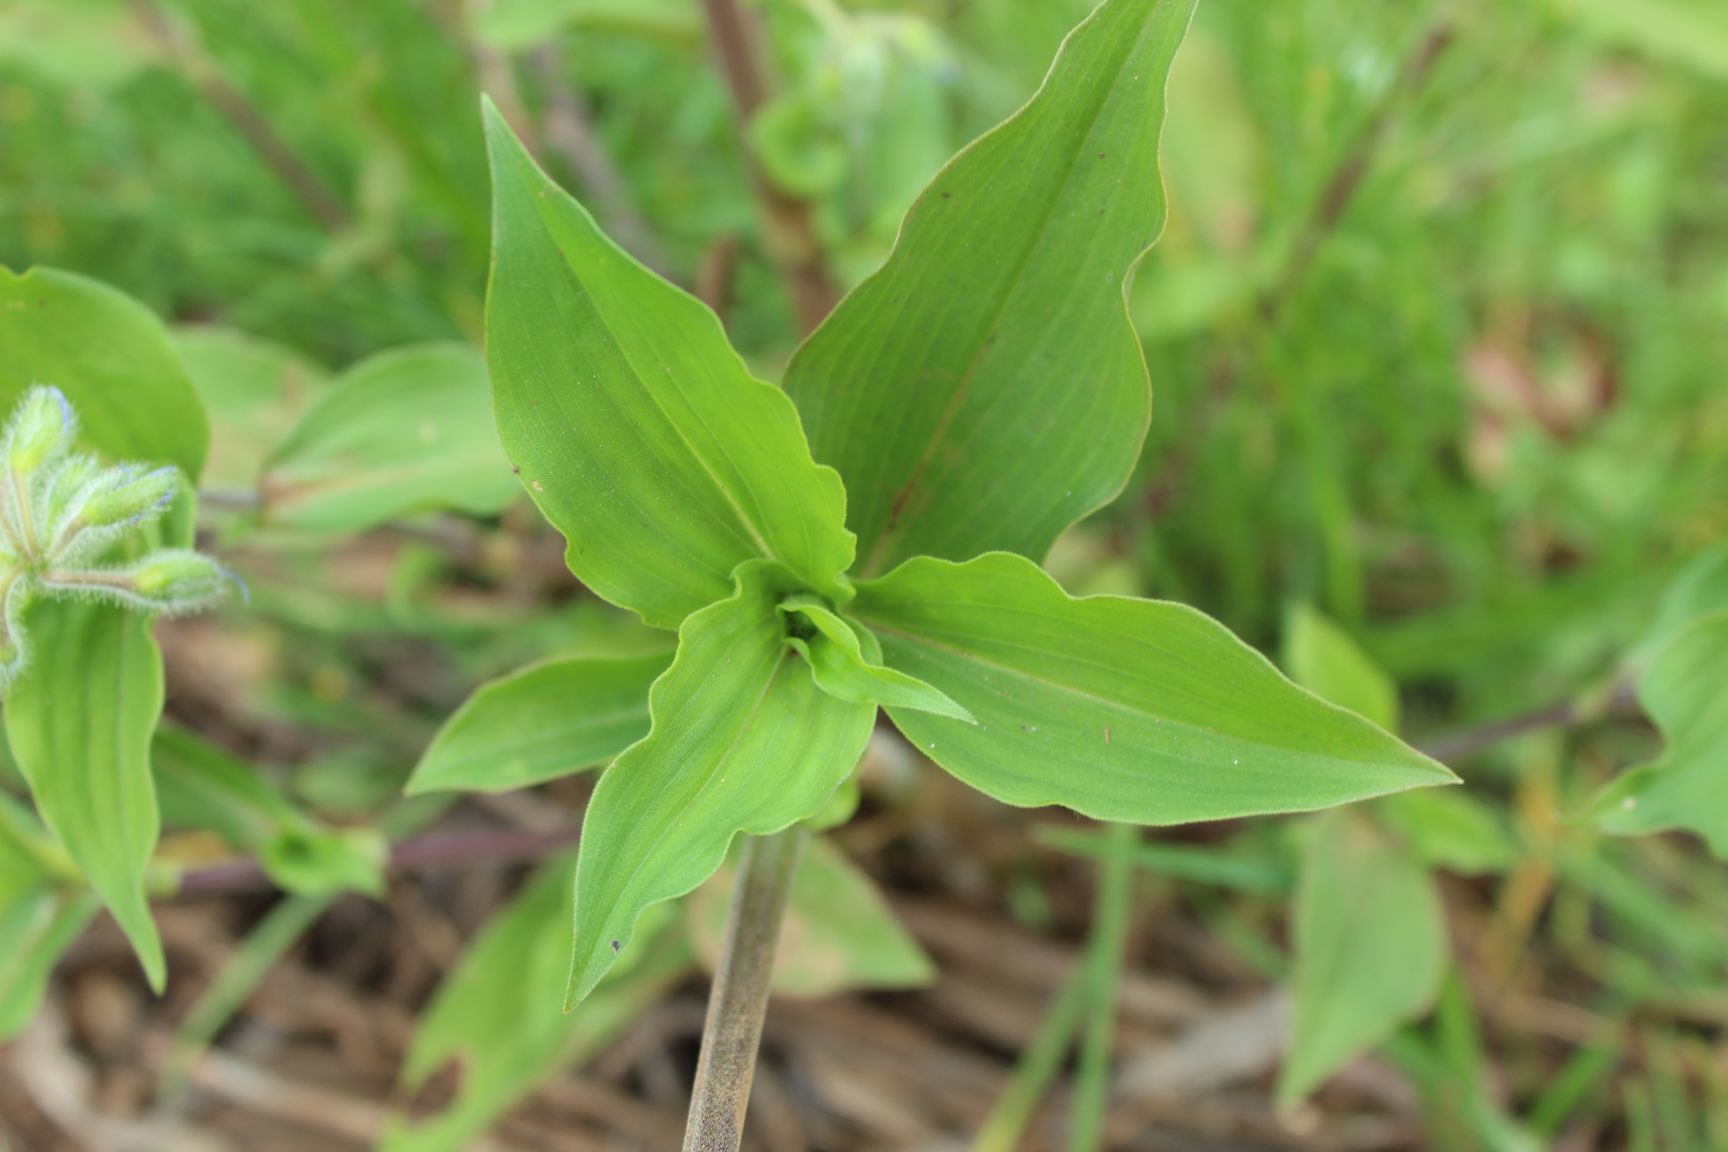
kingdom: Plantae
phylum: Tracheophyta
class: Liliopsida
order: Commelinales
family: Commelinaceae
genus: Tinantia
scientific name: Tinantia erecta
